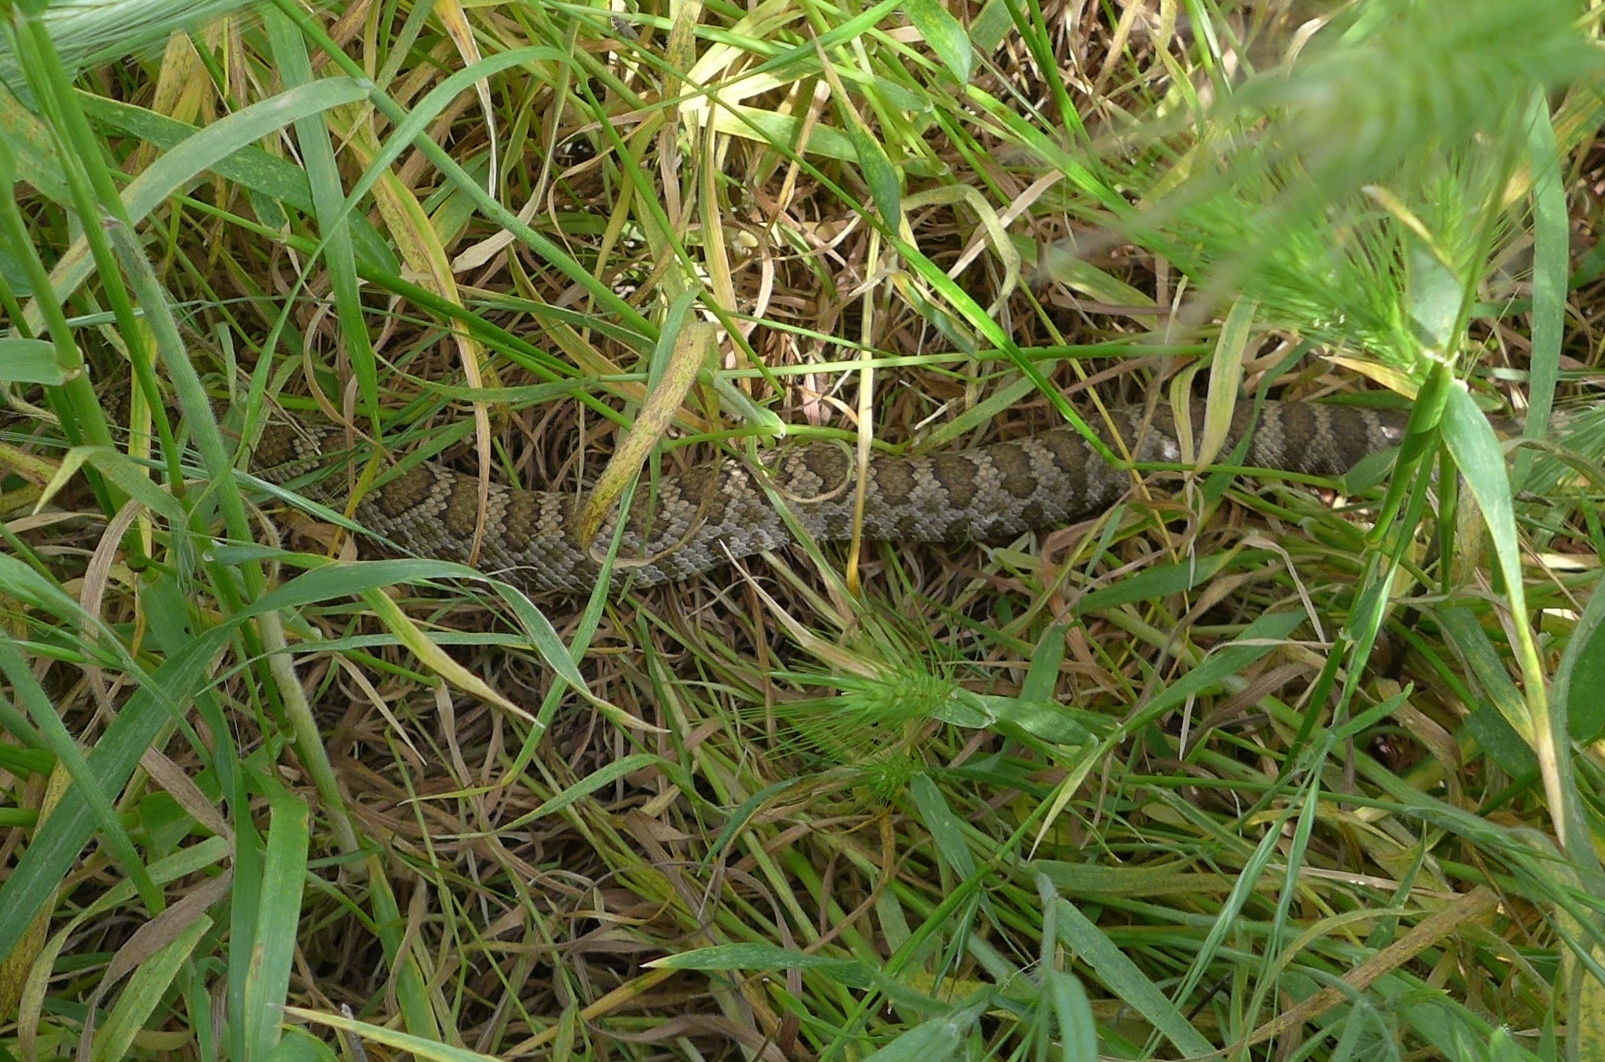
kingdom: Animalia
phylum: Chordata
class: Squamata
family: Viperidae
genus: Crotalus
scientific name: Crotalus oreganus
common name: Abyssus
